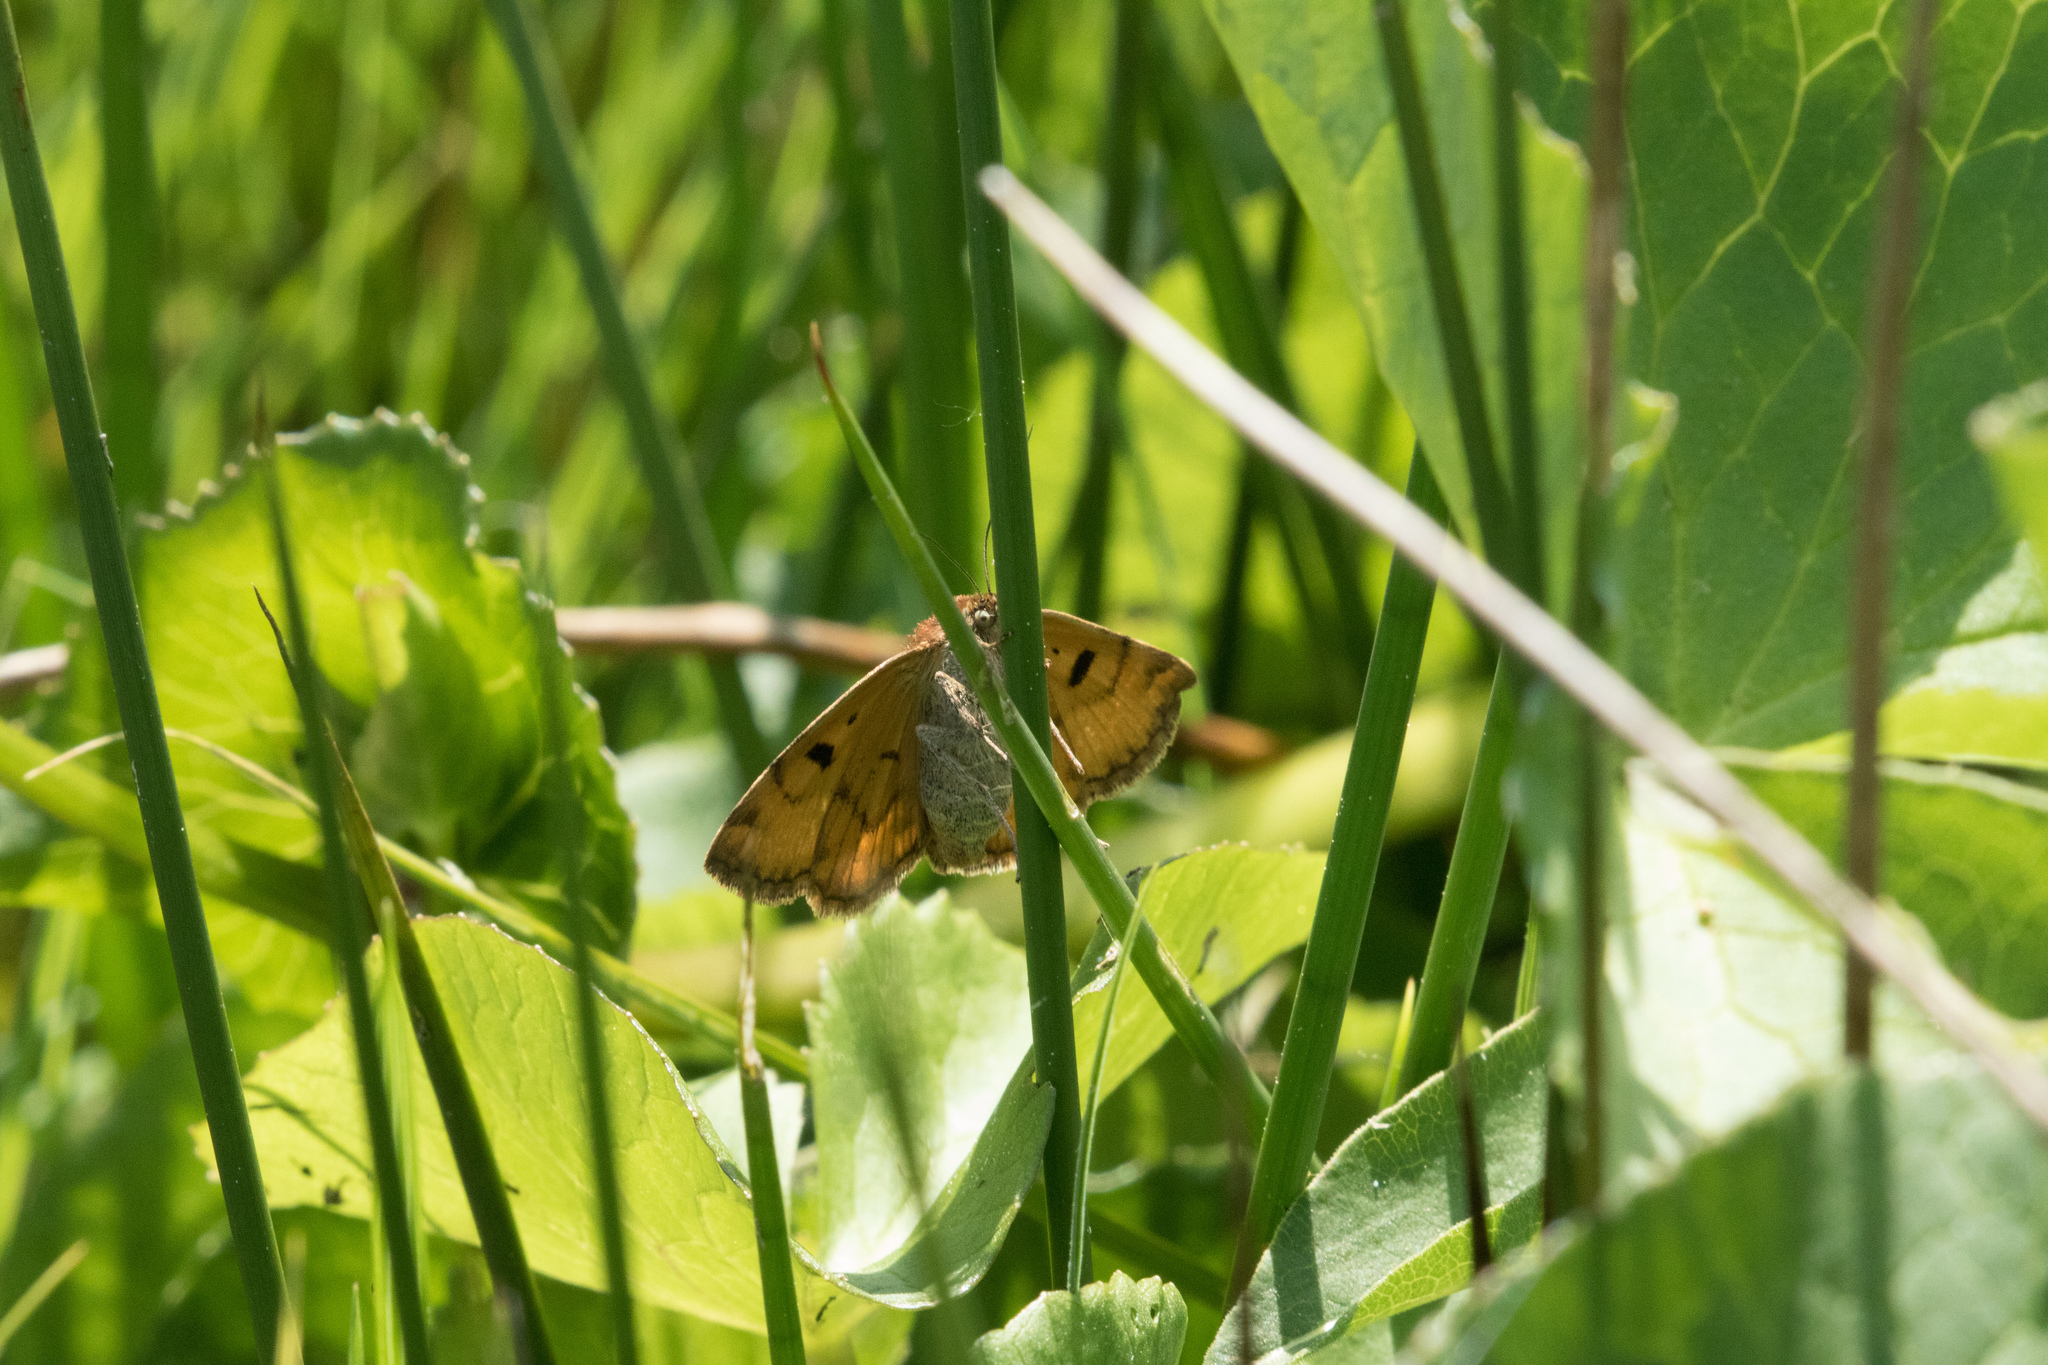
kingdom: Animalia
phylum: Arthropoda
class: Insecta
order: Lepidoptera
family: Erebidae
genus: Euclidia
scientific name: Euclidia glyphica
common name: Burnet companion
